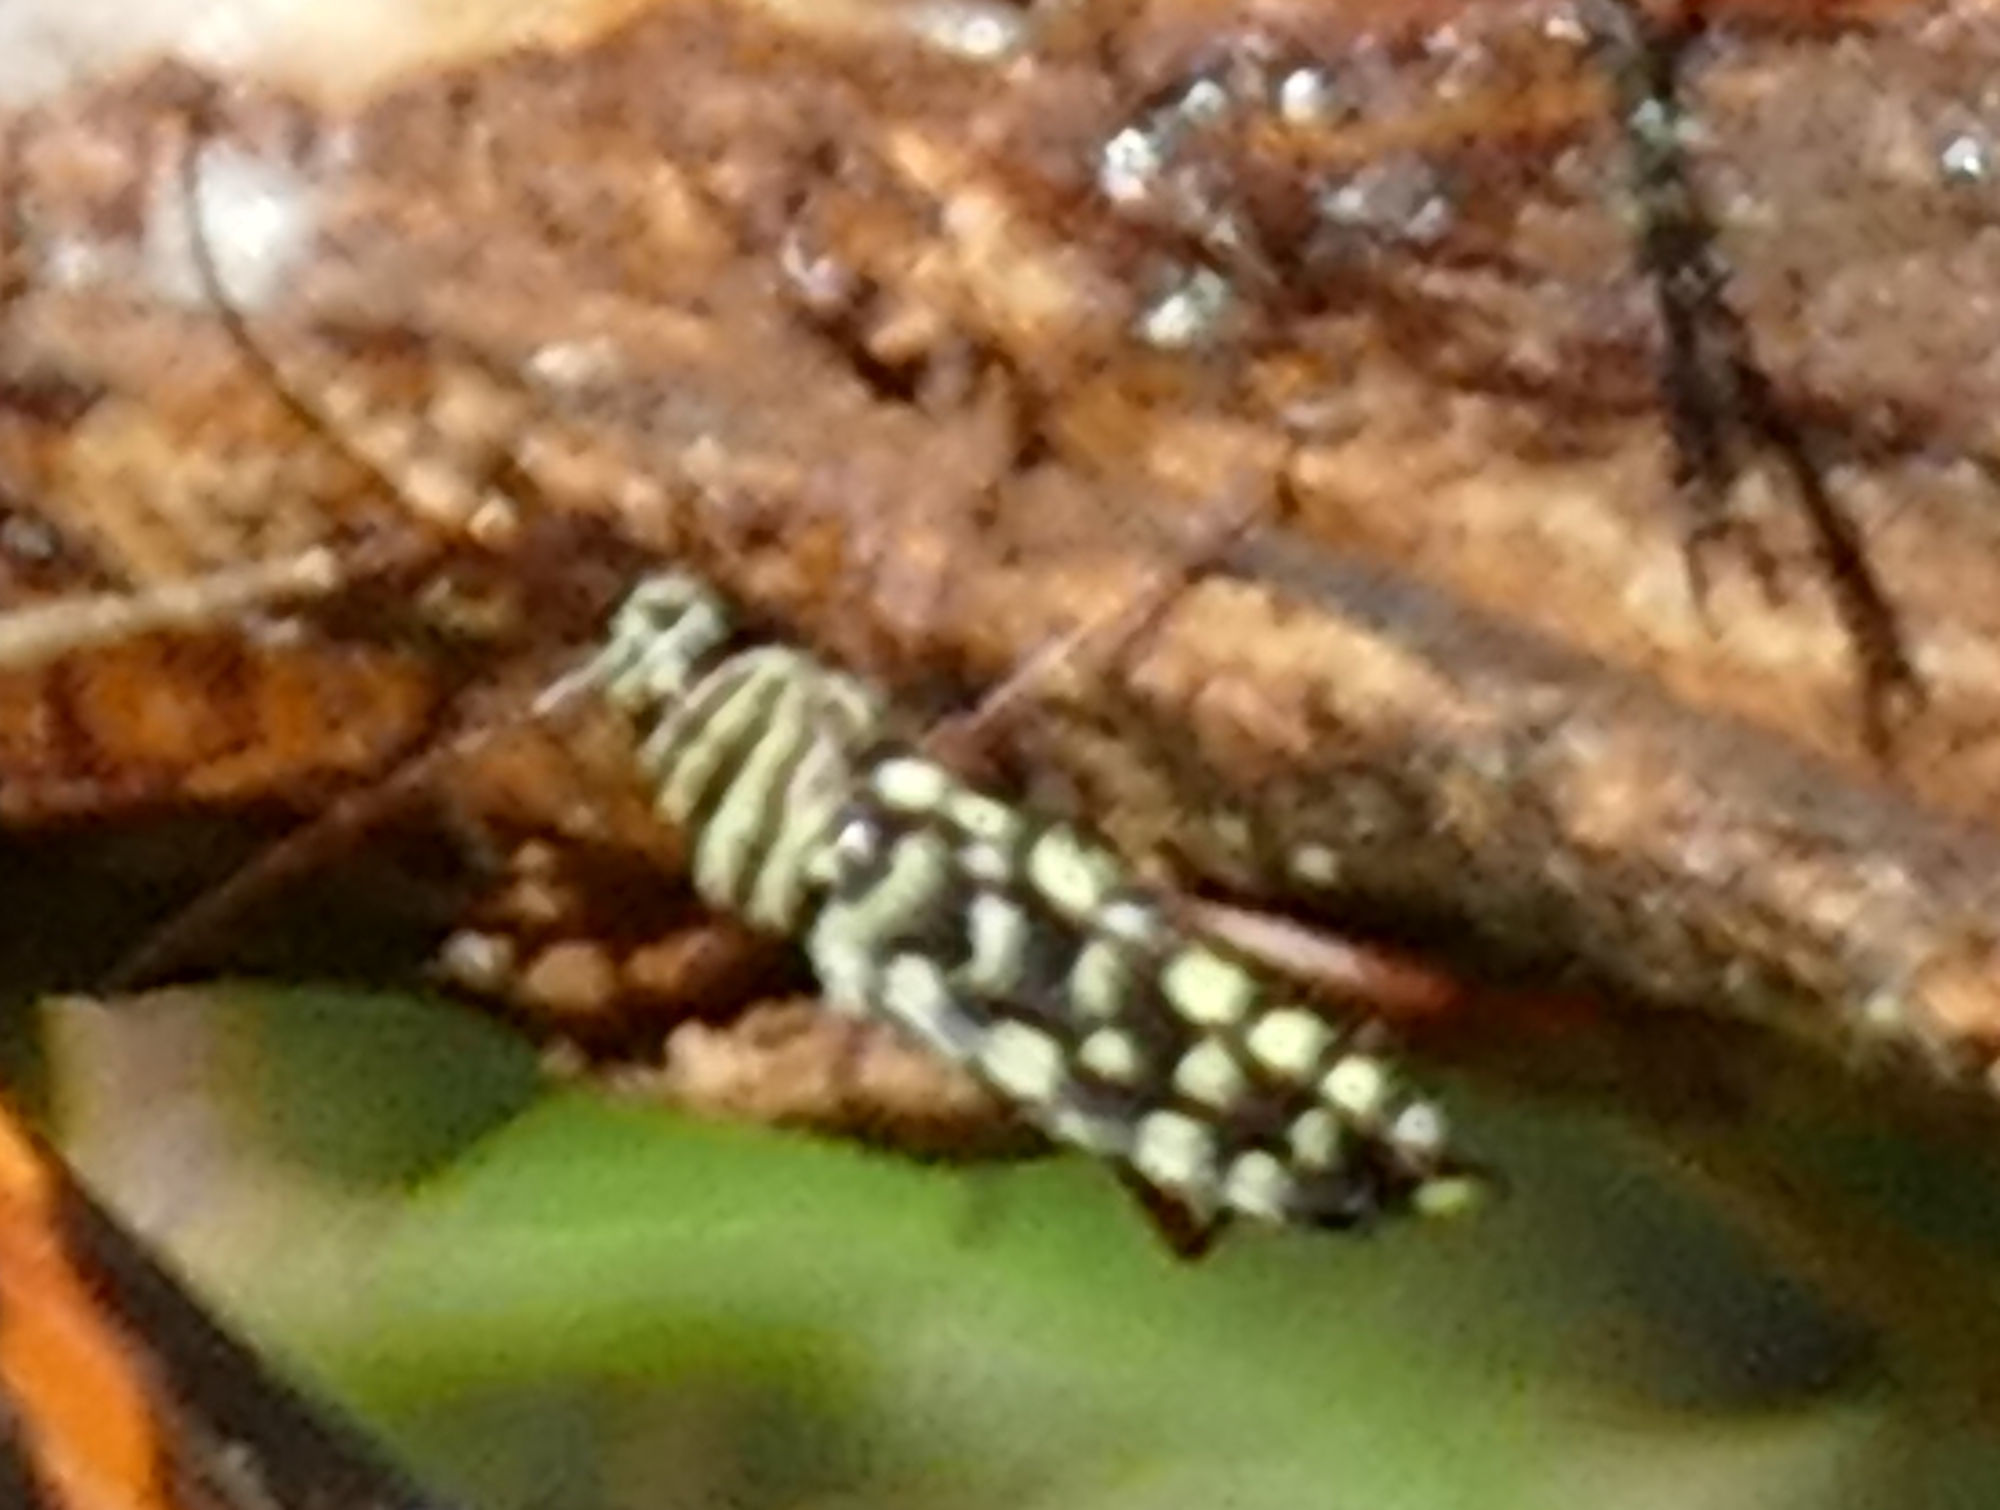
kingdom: Animalia
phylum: Arthropoda
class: Insecta
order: Coleoptera
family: Cerambycidae
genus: Placosternus
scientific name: Placosternus difficilis
